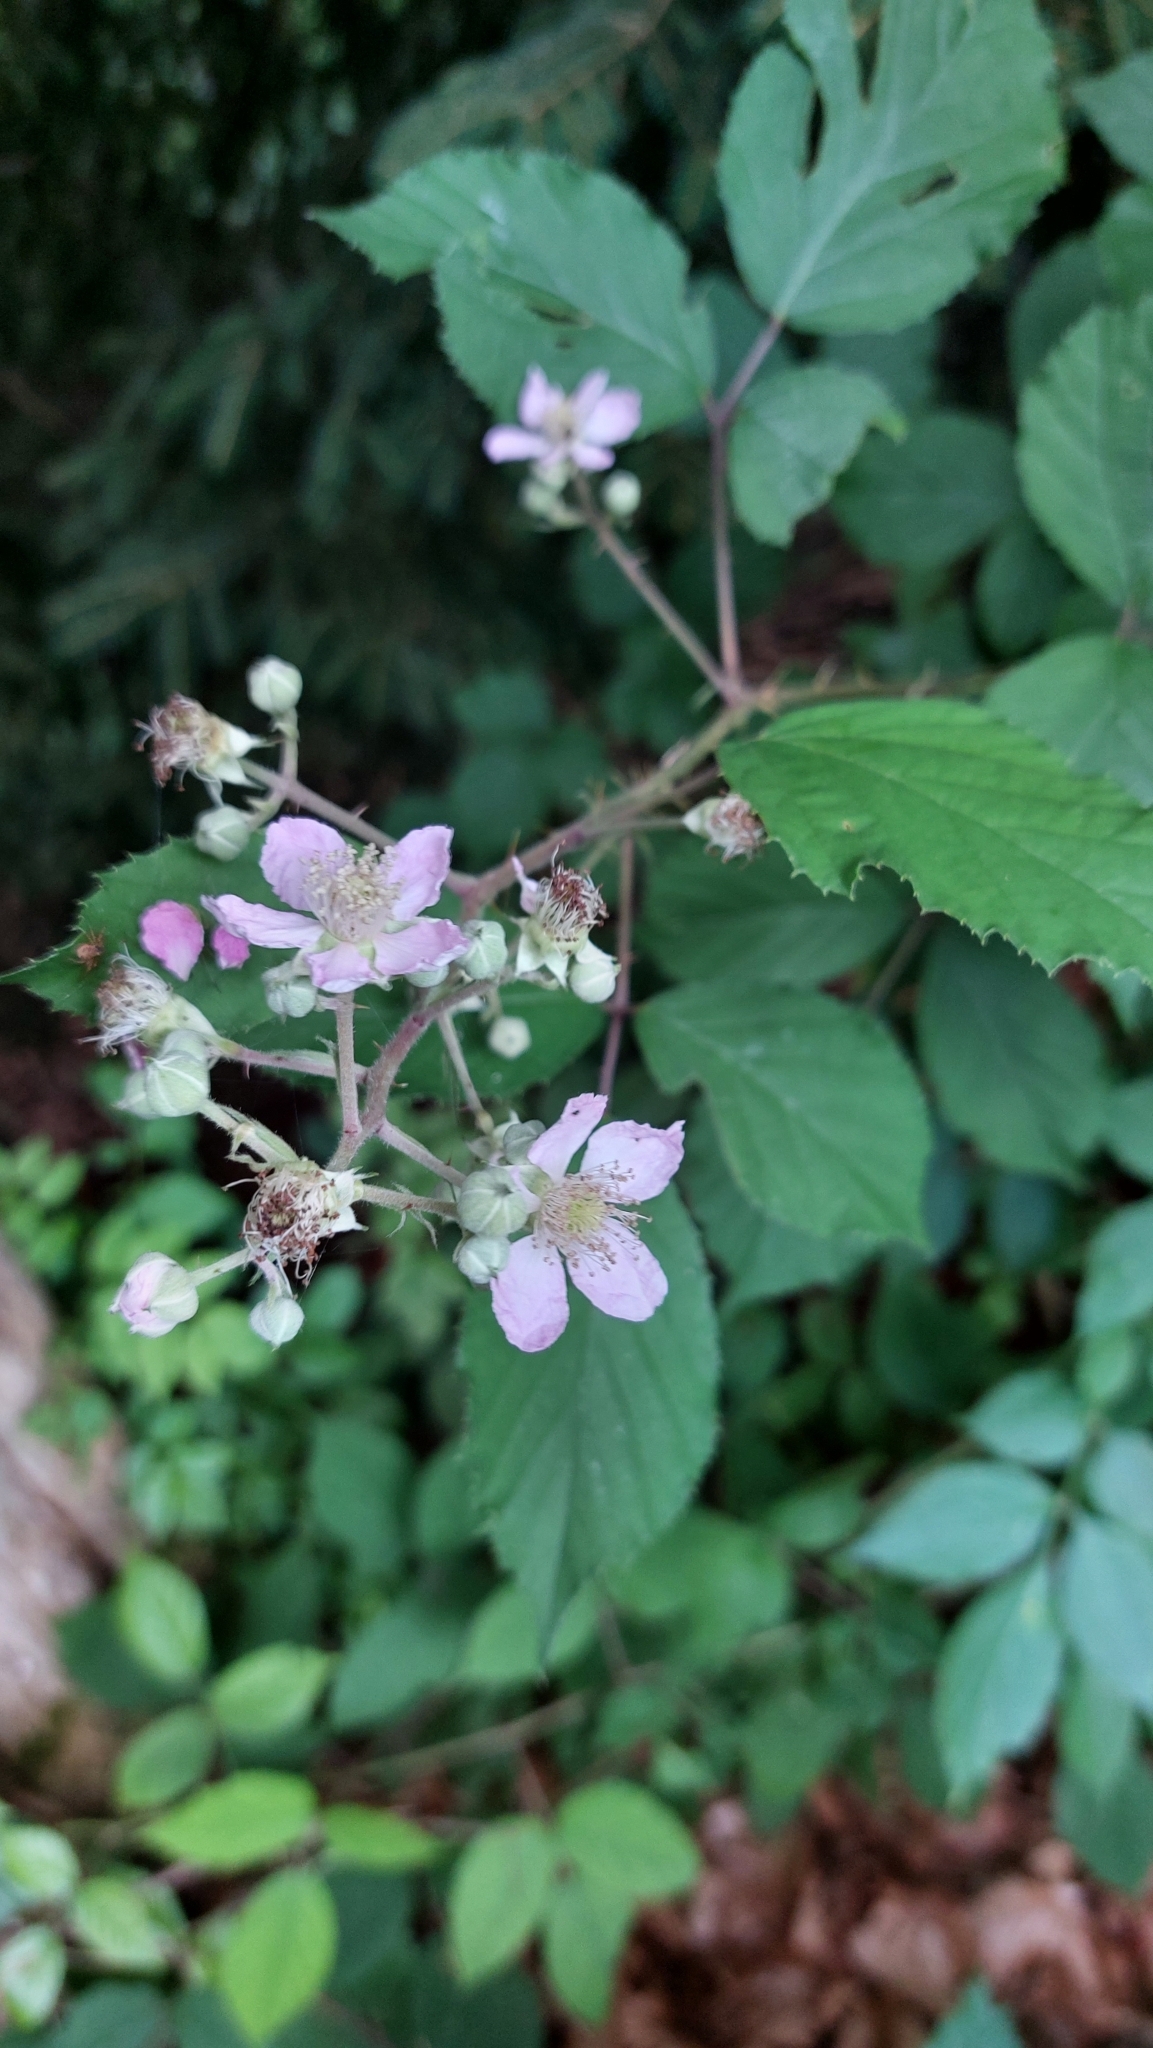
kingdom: Plantae
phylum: Tracheophyta
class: Magnoliopsida
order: Rosales
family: Rosaceae
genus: Rubus
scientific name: Rubus
